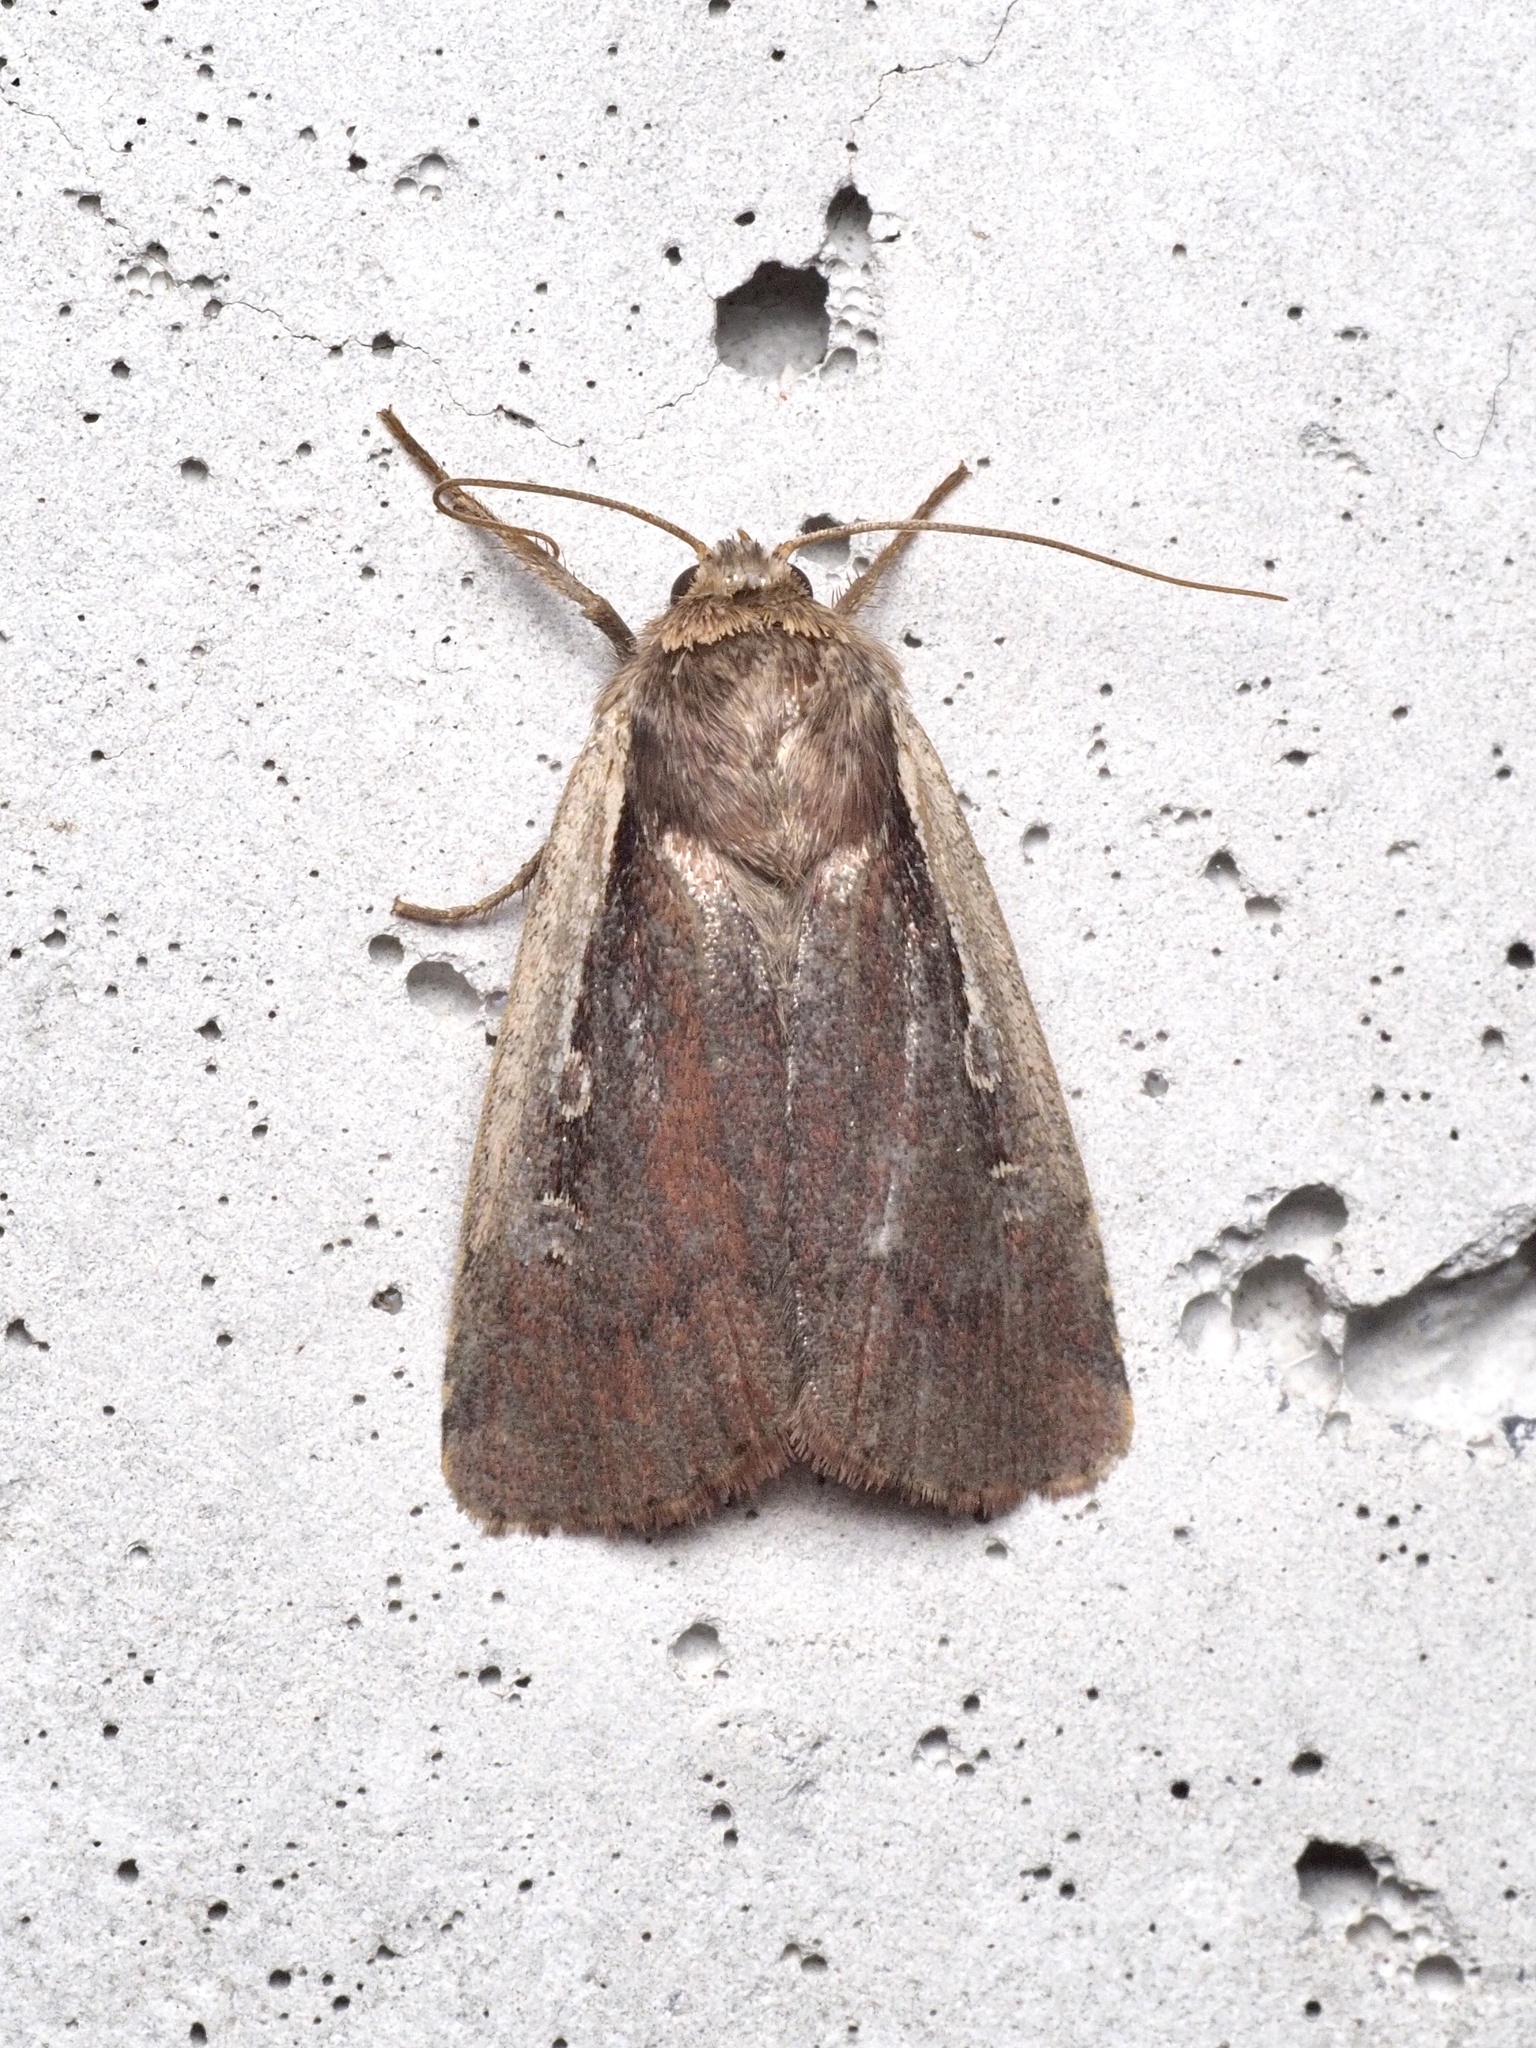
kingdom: Animalia
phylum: Arthropoda
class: Insecta
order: Lepidoptera
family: Noctuidae
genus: Ochropleura
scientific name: Ochropleura plecta
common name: Flame shoulder
